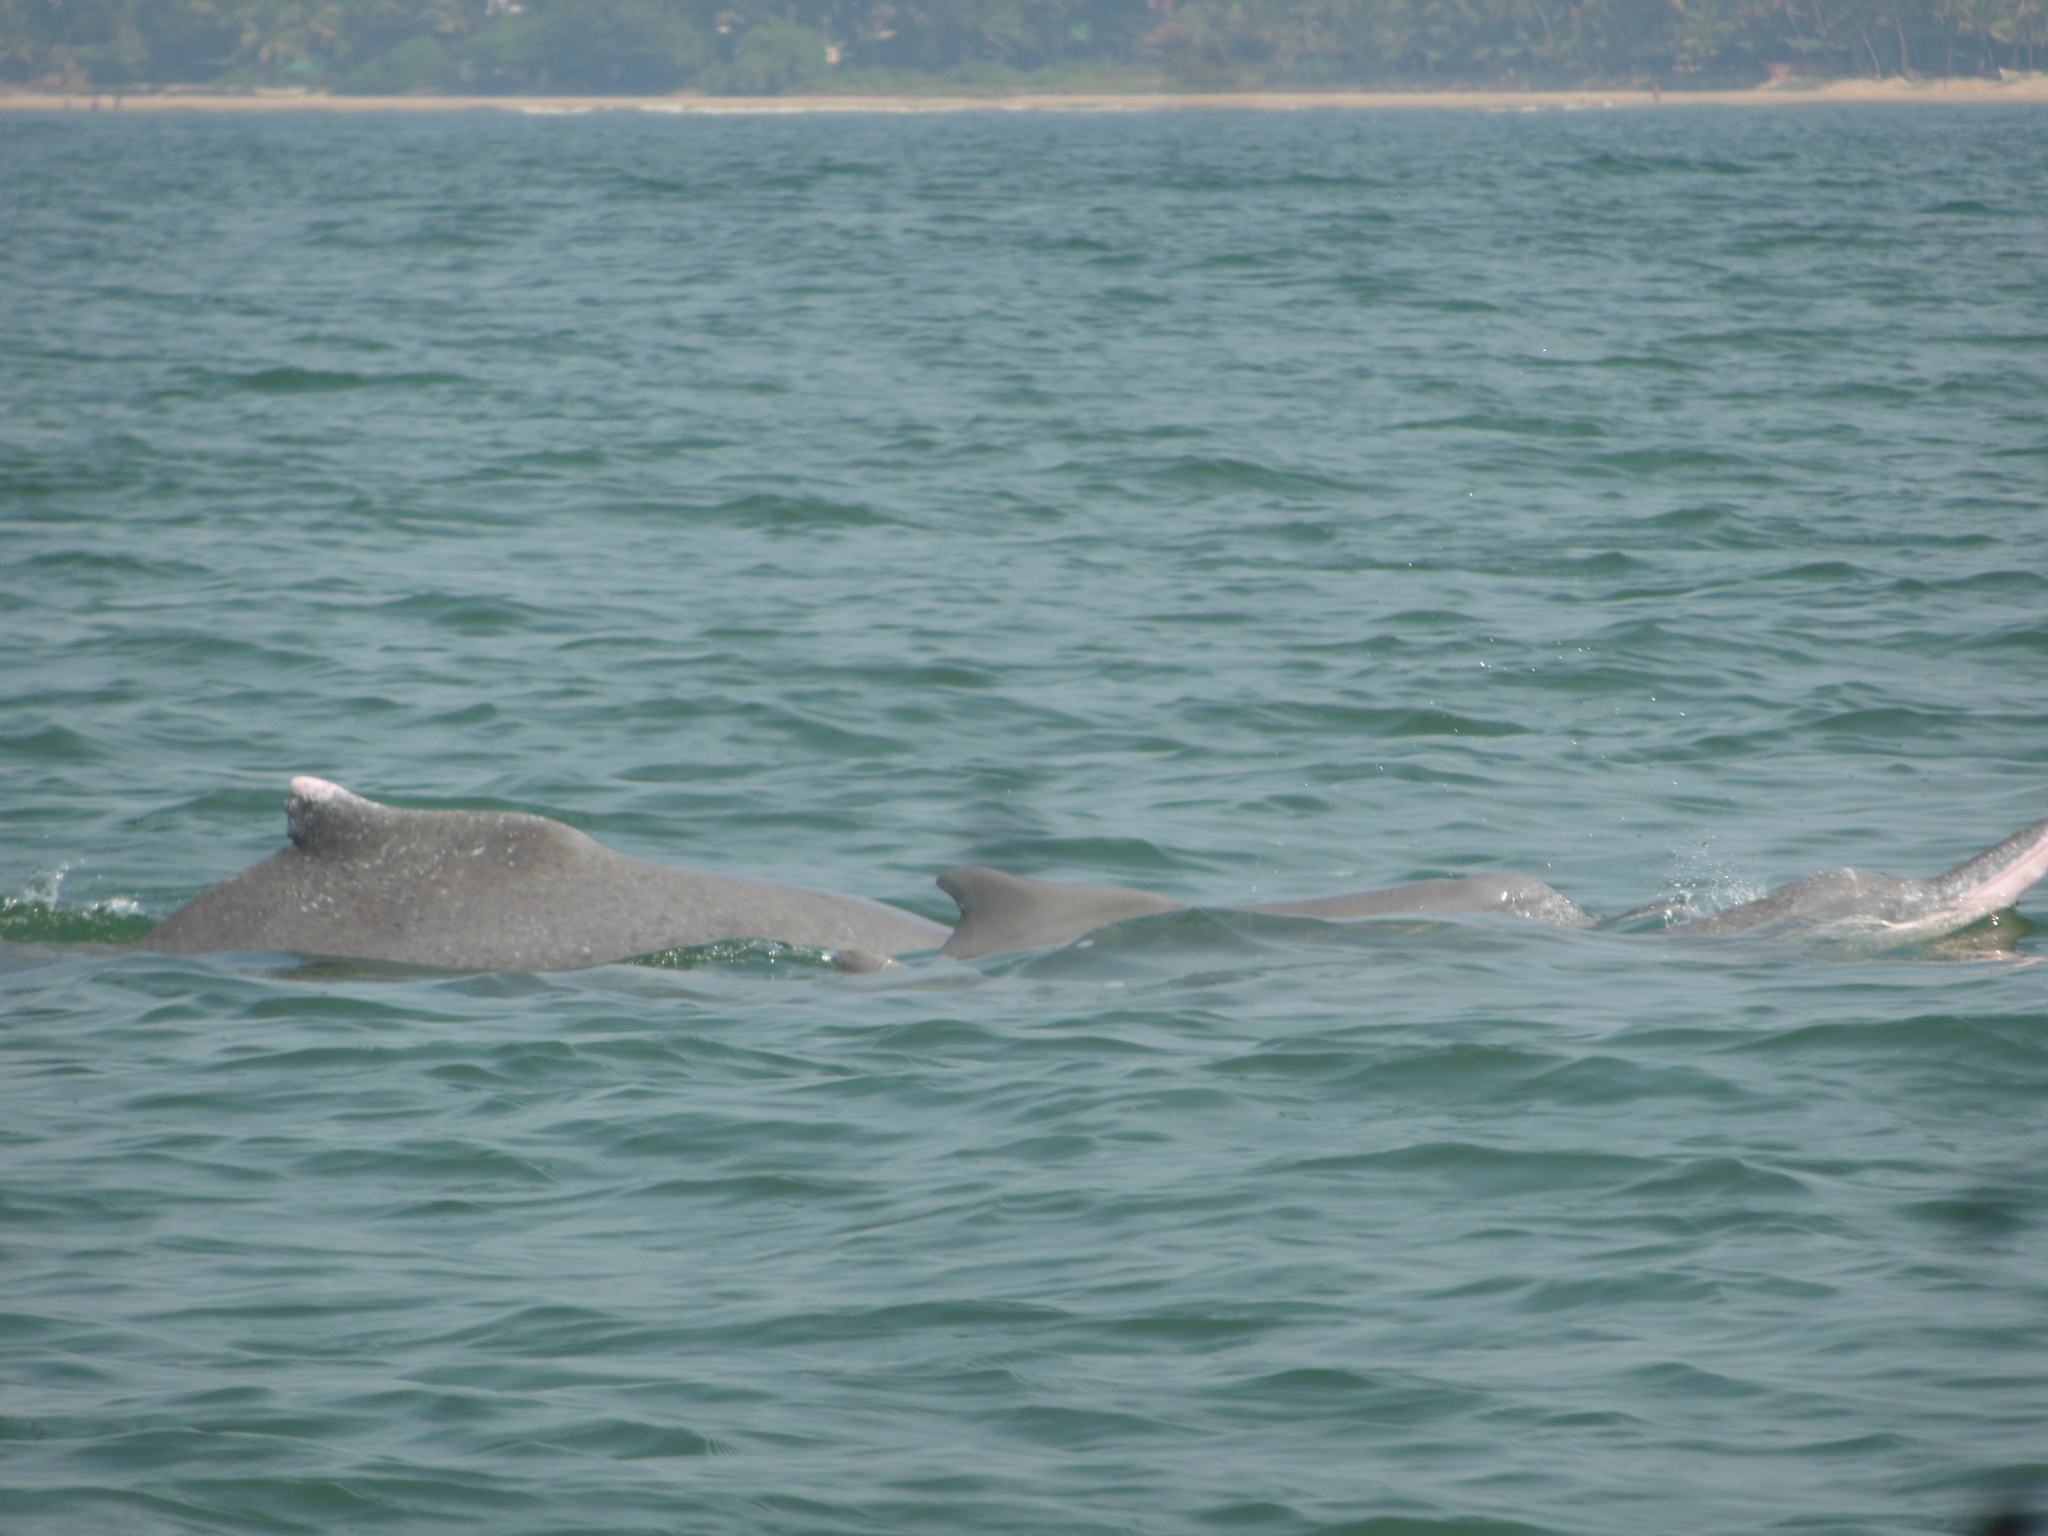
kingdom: Animalia
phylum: Chordata
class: Mammalia
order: Cetacea
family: Delphinidae
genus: Sousa
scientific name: Sousa plumbea
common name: Indian ocean humpback dolphin
